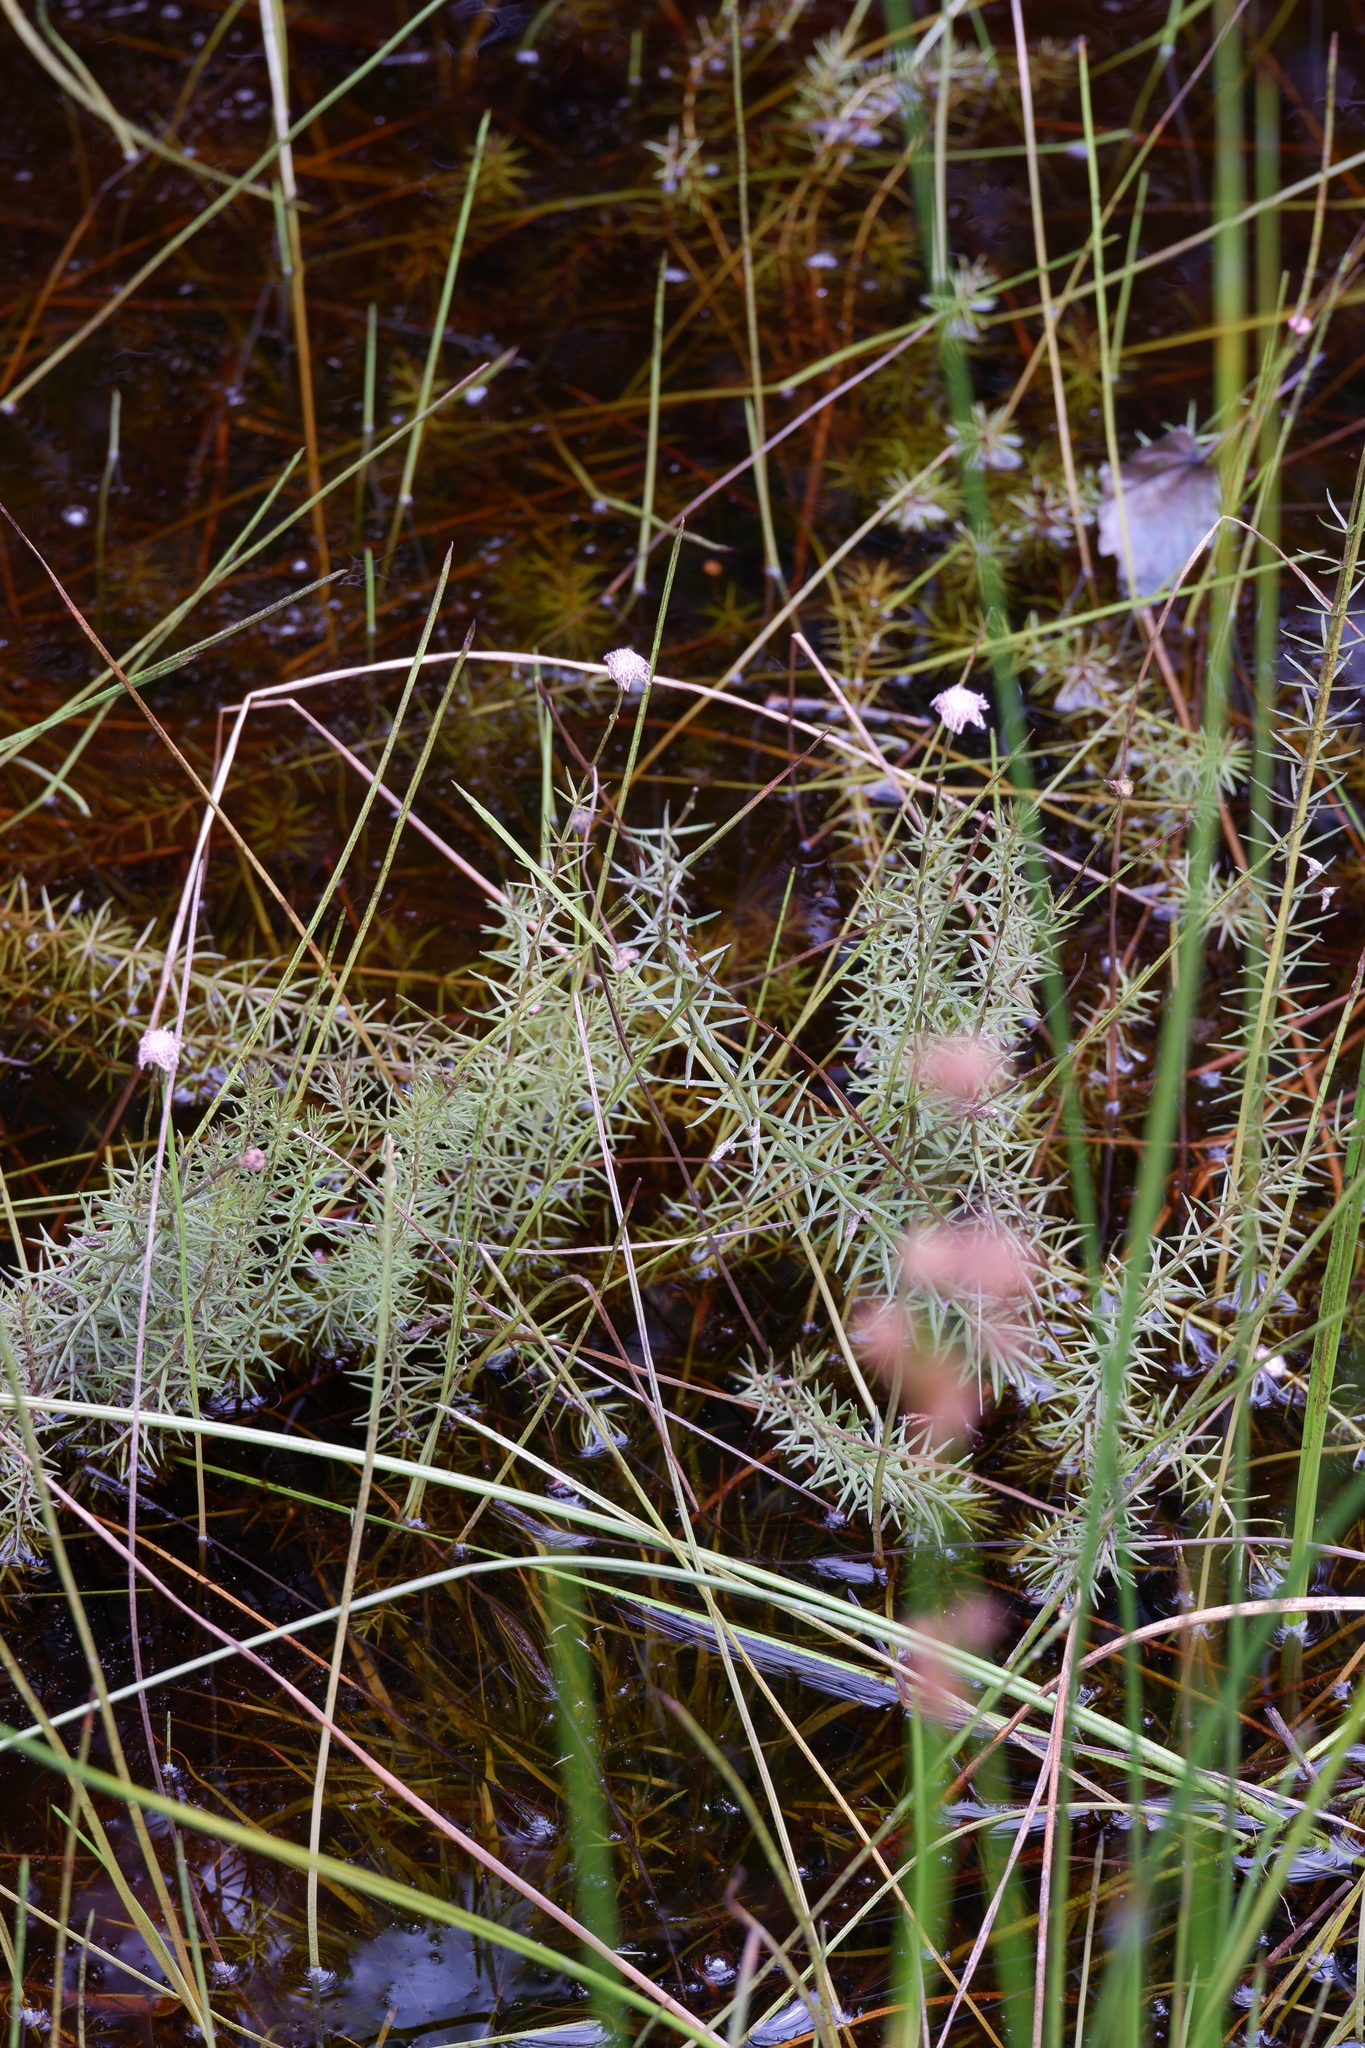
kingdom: Plantae
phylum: Tracheophyta
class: Magnoliopsida
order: Asterales
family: Asteraceae
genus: Sclerolepis
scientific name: Sclerolepis uniflora
